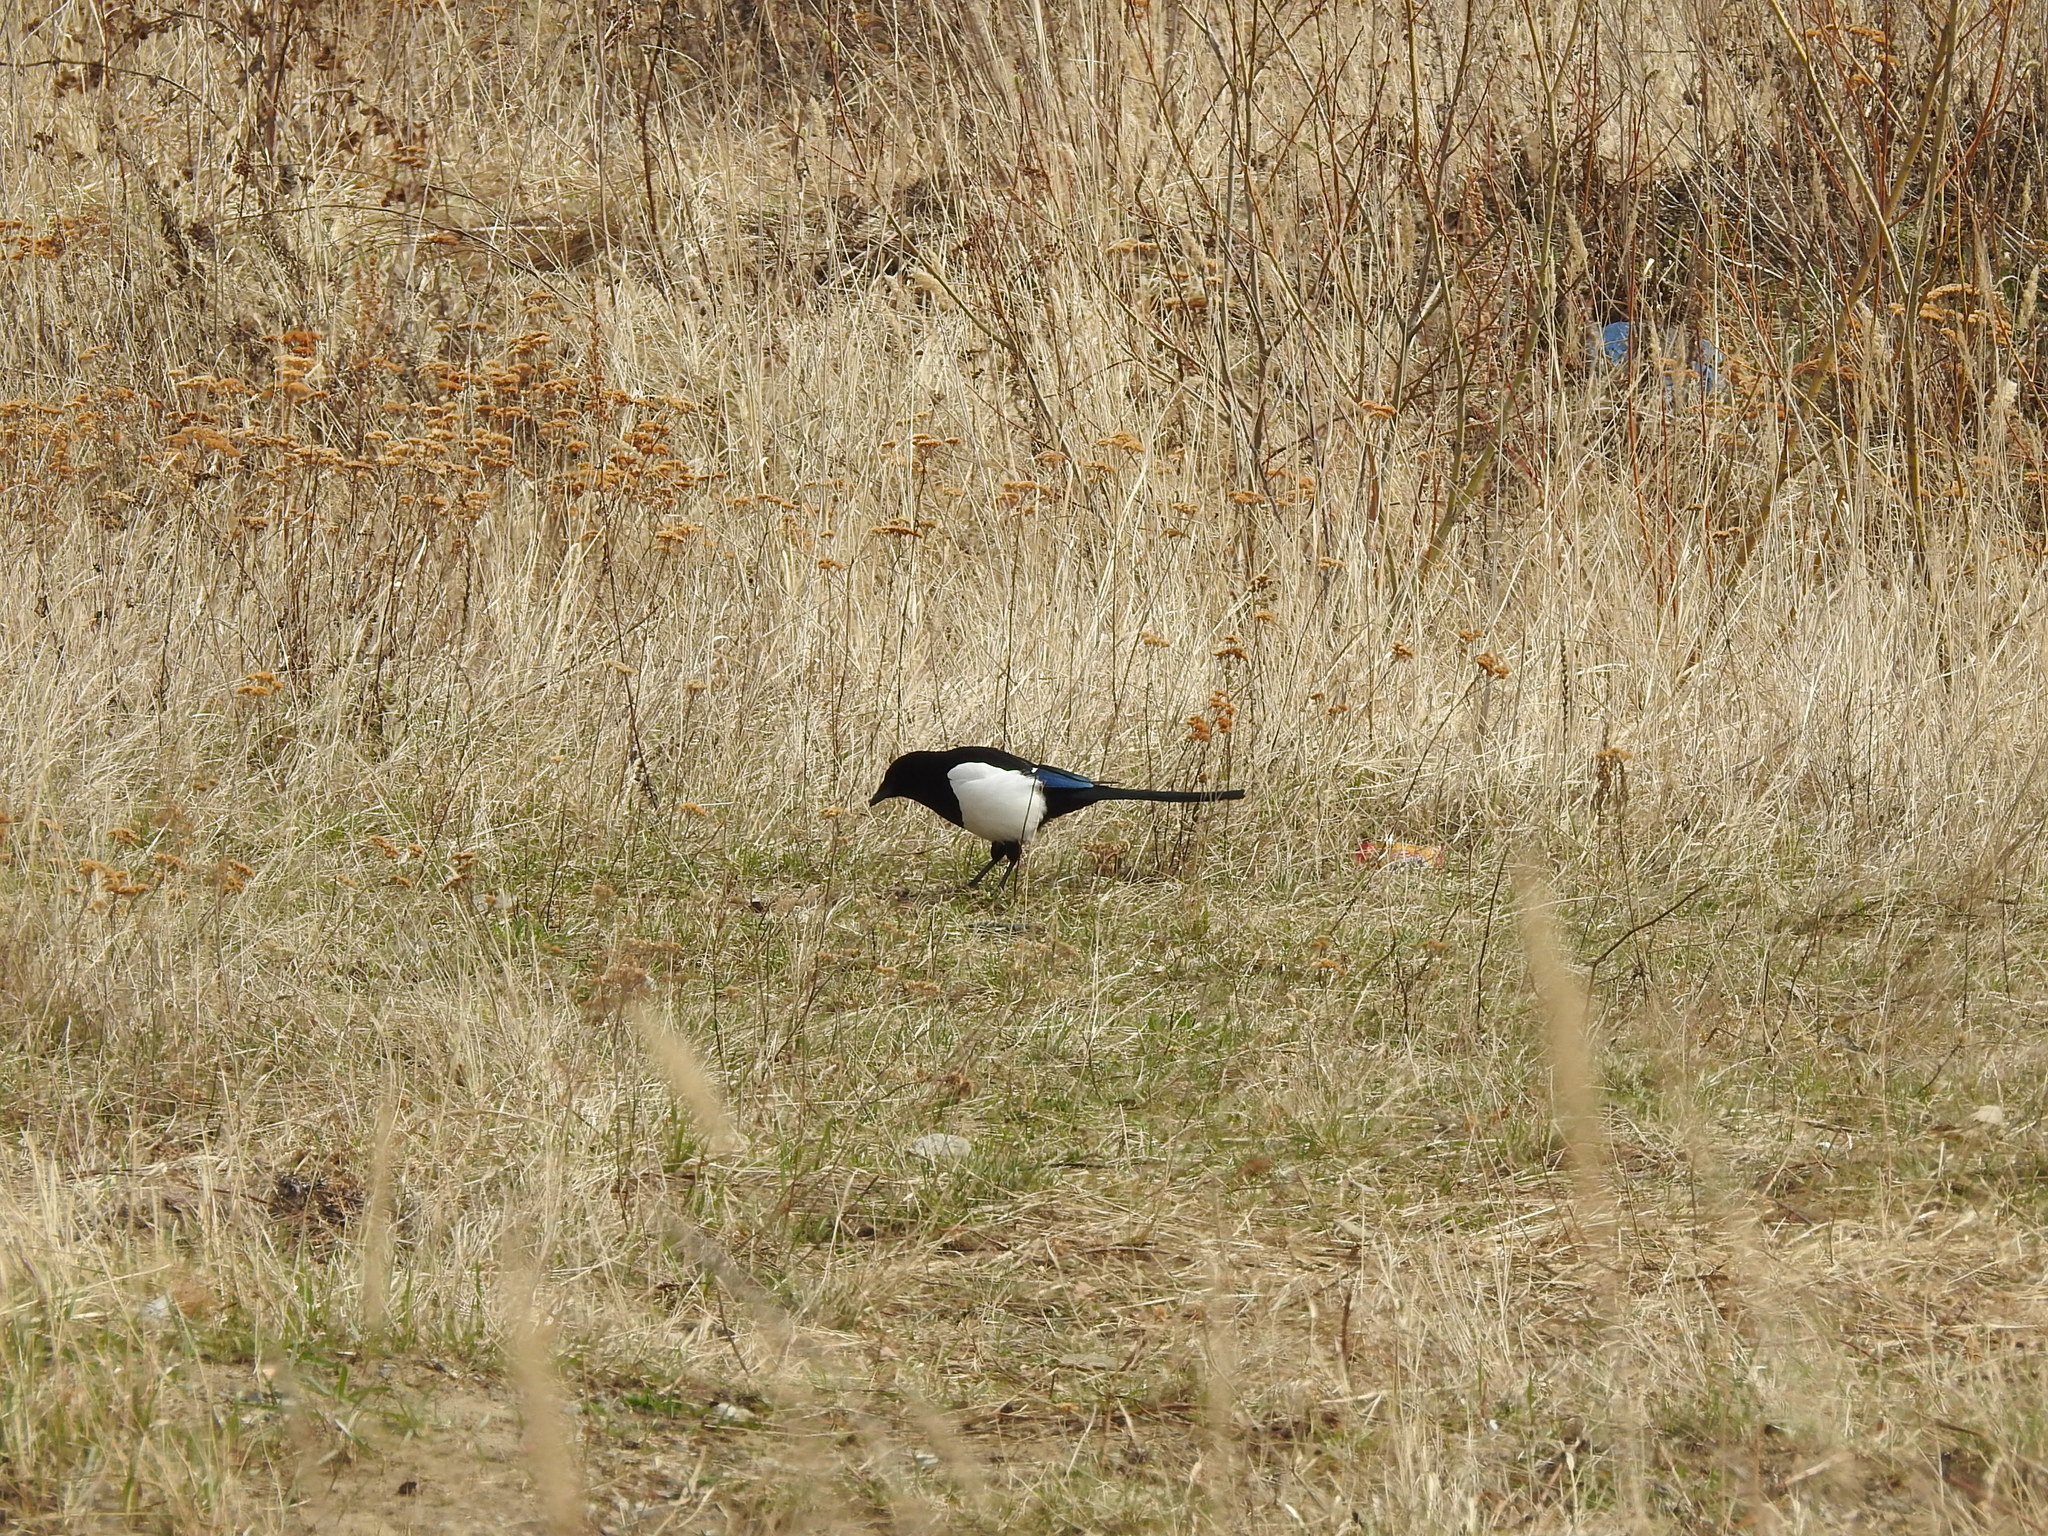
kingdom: Animalia
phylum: Chordata
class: Aves
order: Passeriformes
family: Corvidae
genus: Pica
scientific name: Pica pica
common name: Eurasian magpie
